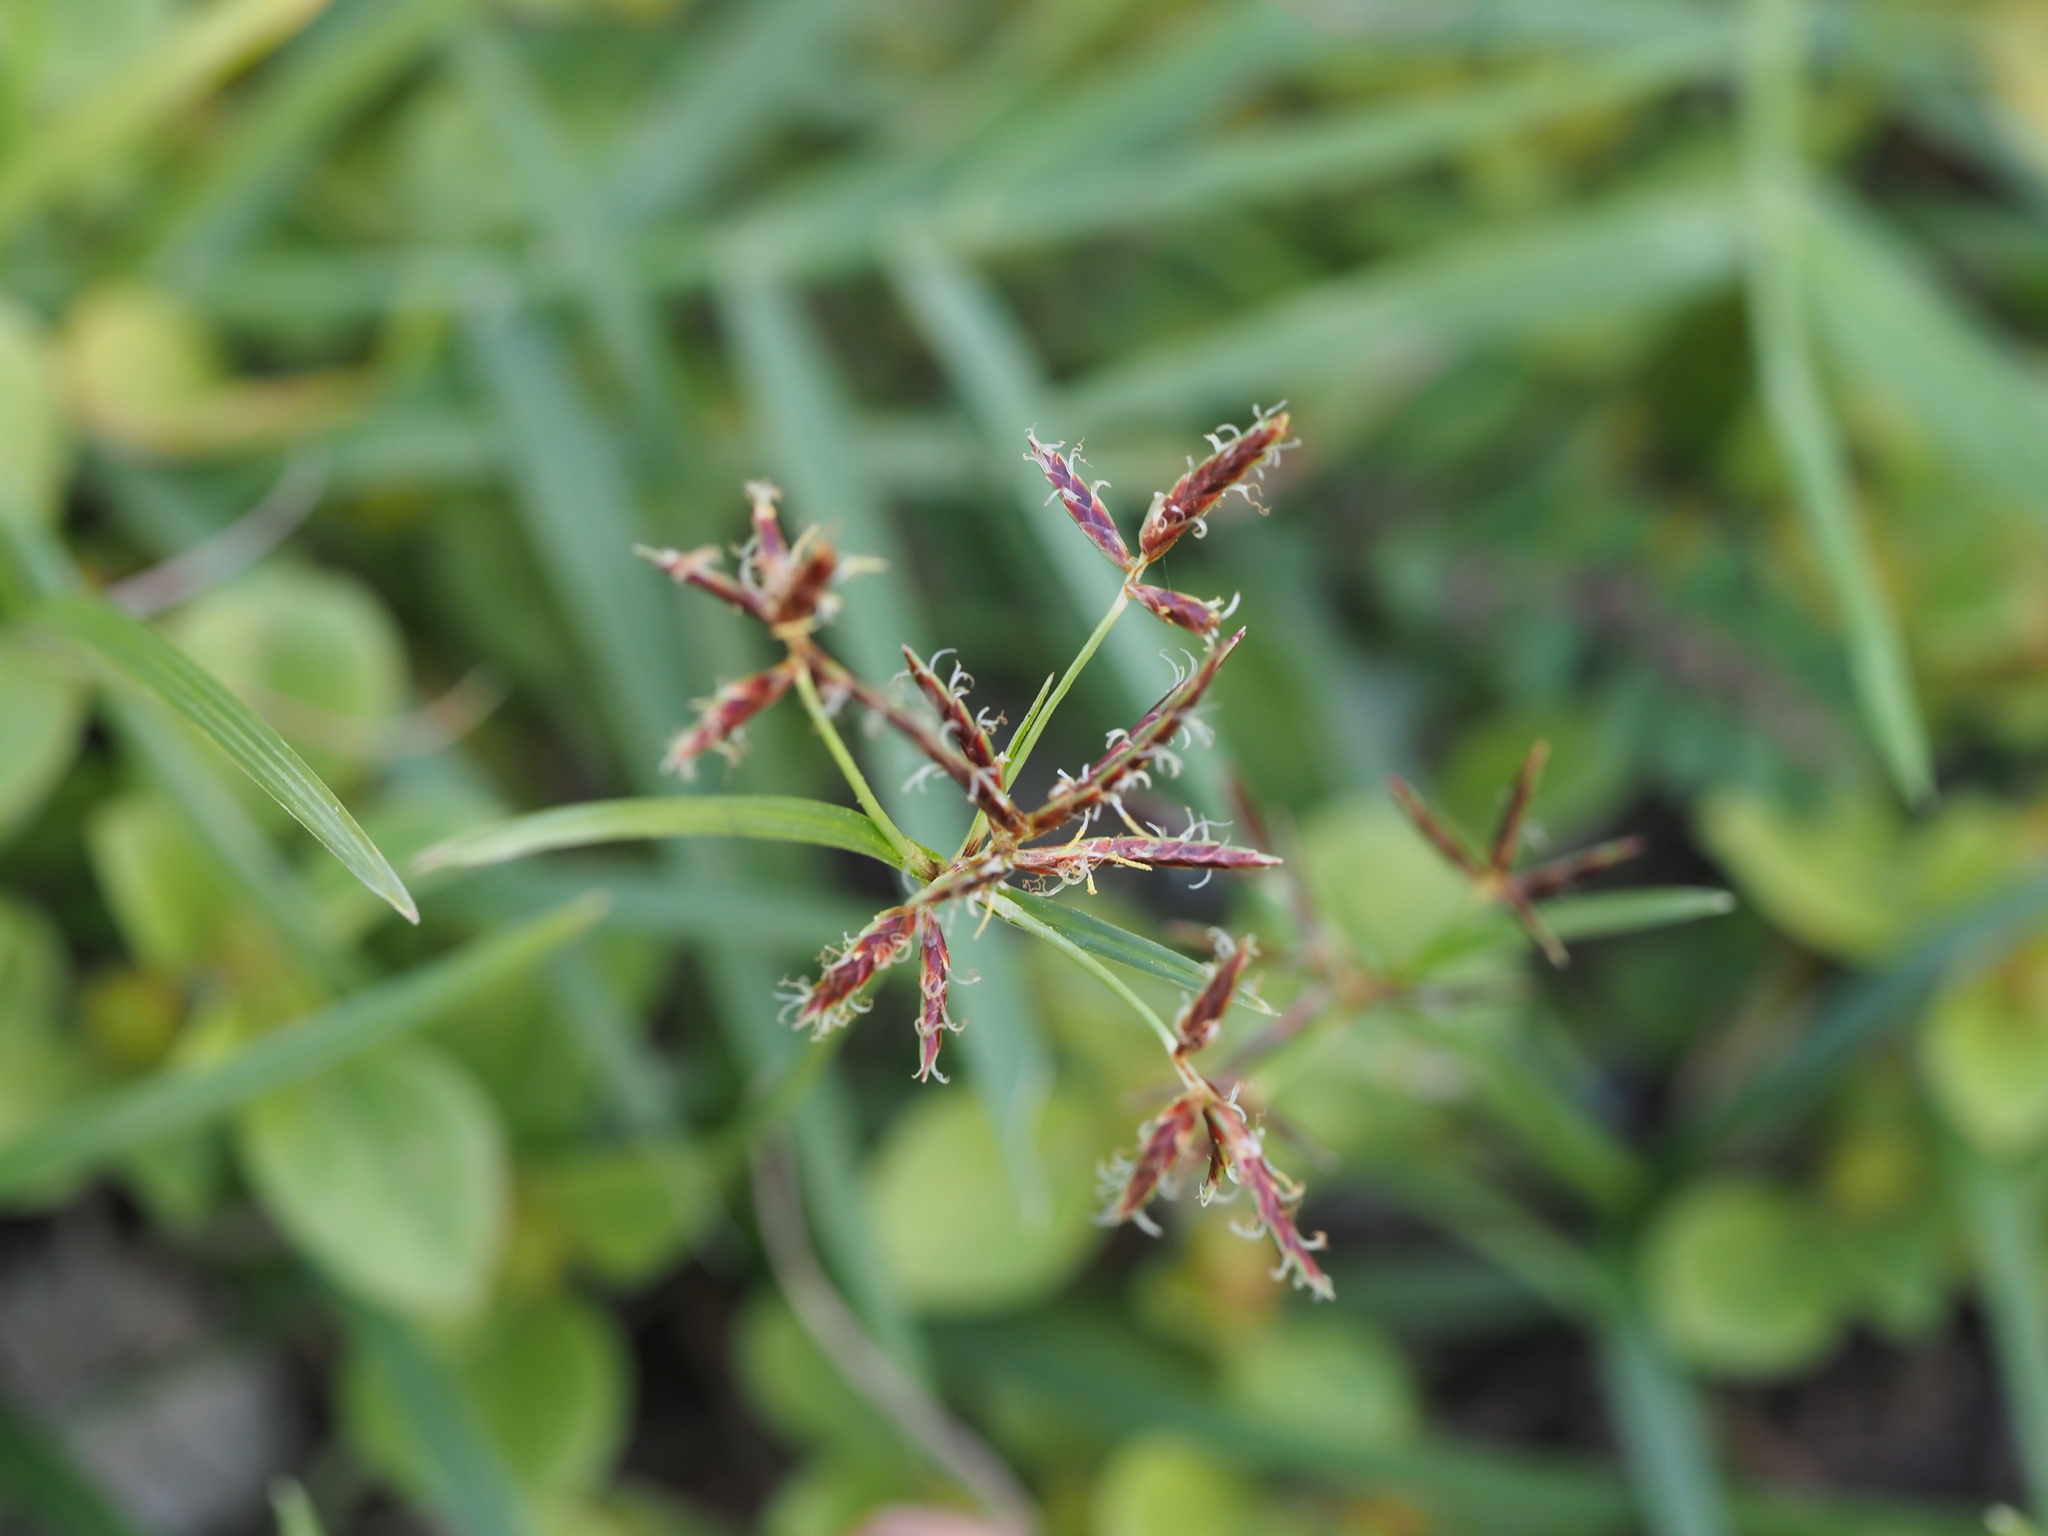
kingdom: Plantae
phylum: Tracheophyta
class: Liliopsida
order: Poales
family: Cyperaceae
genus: Cyperus
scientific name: Cyperus rotundus
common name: Nutgrass
